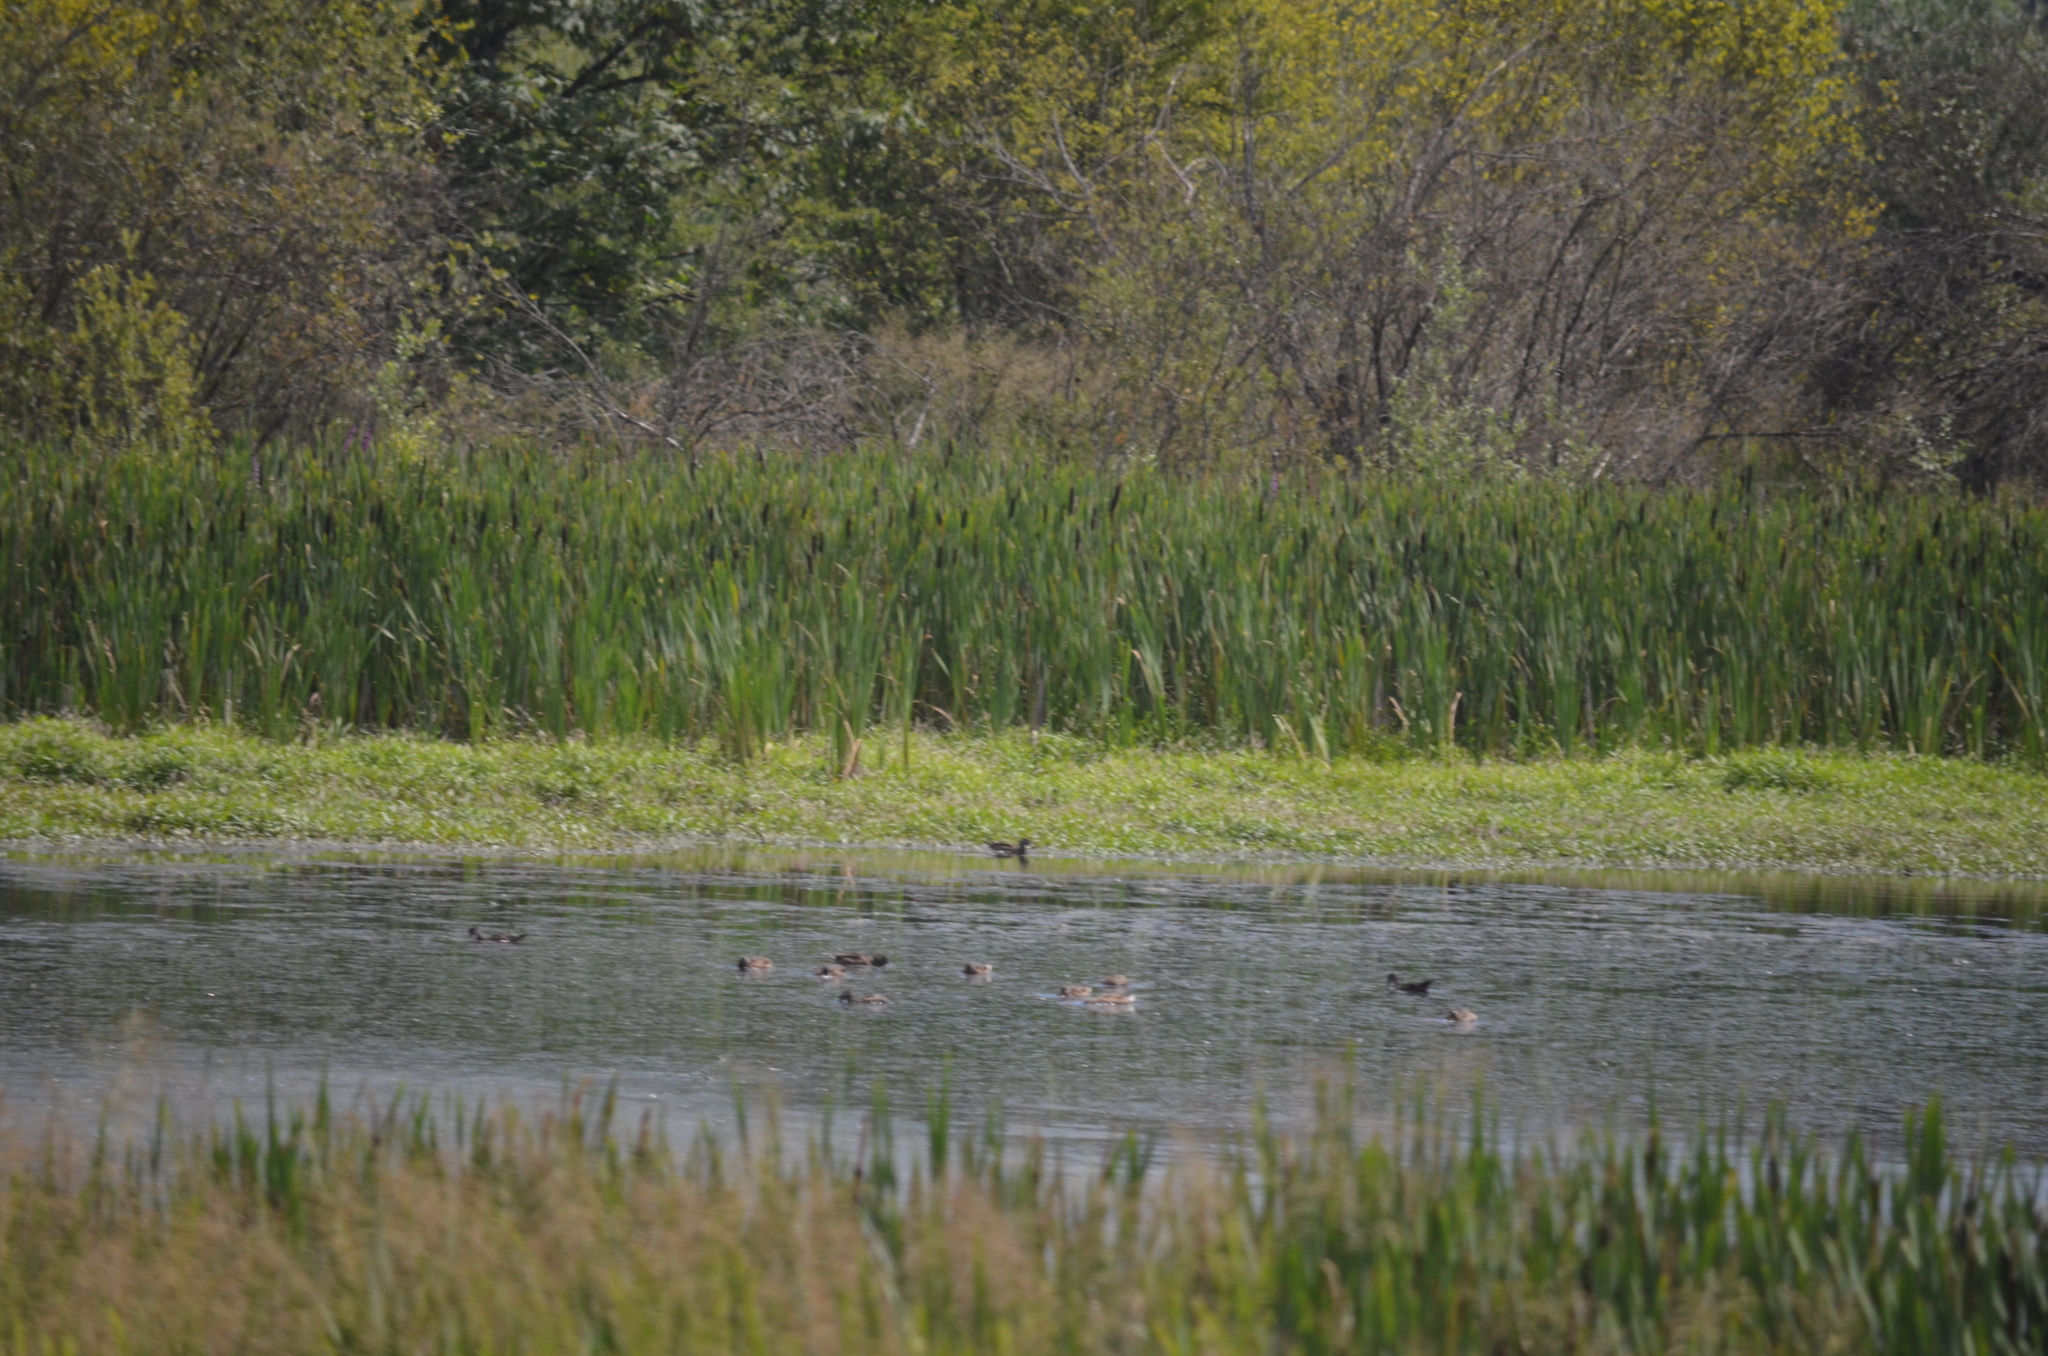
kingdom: Animalia
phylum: Chordata
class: Aves
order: Anseriformes
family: Anatidae
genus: Anas
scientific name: Anas platyrhynchos
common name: Mallard
